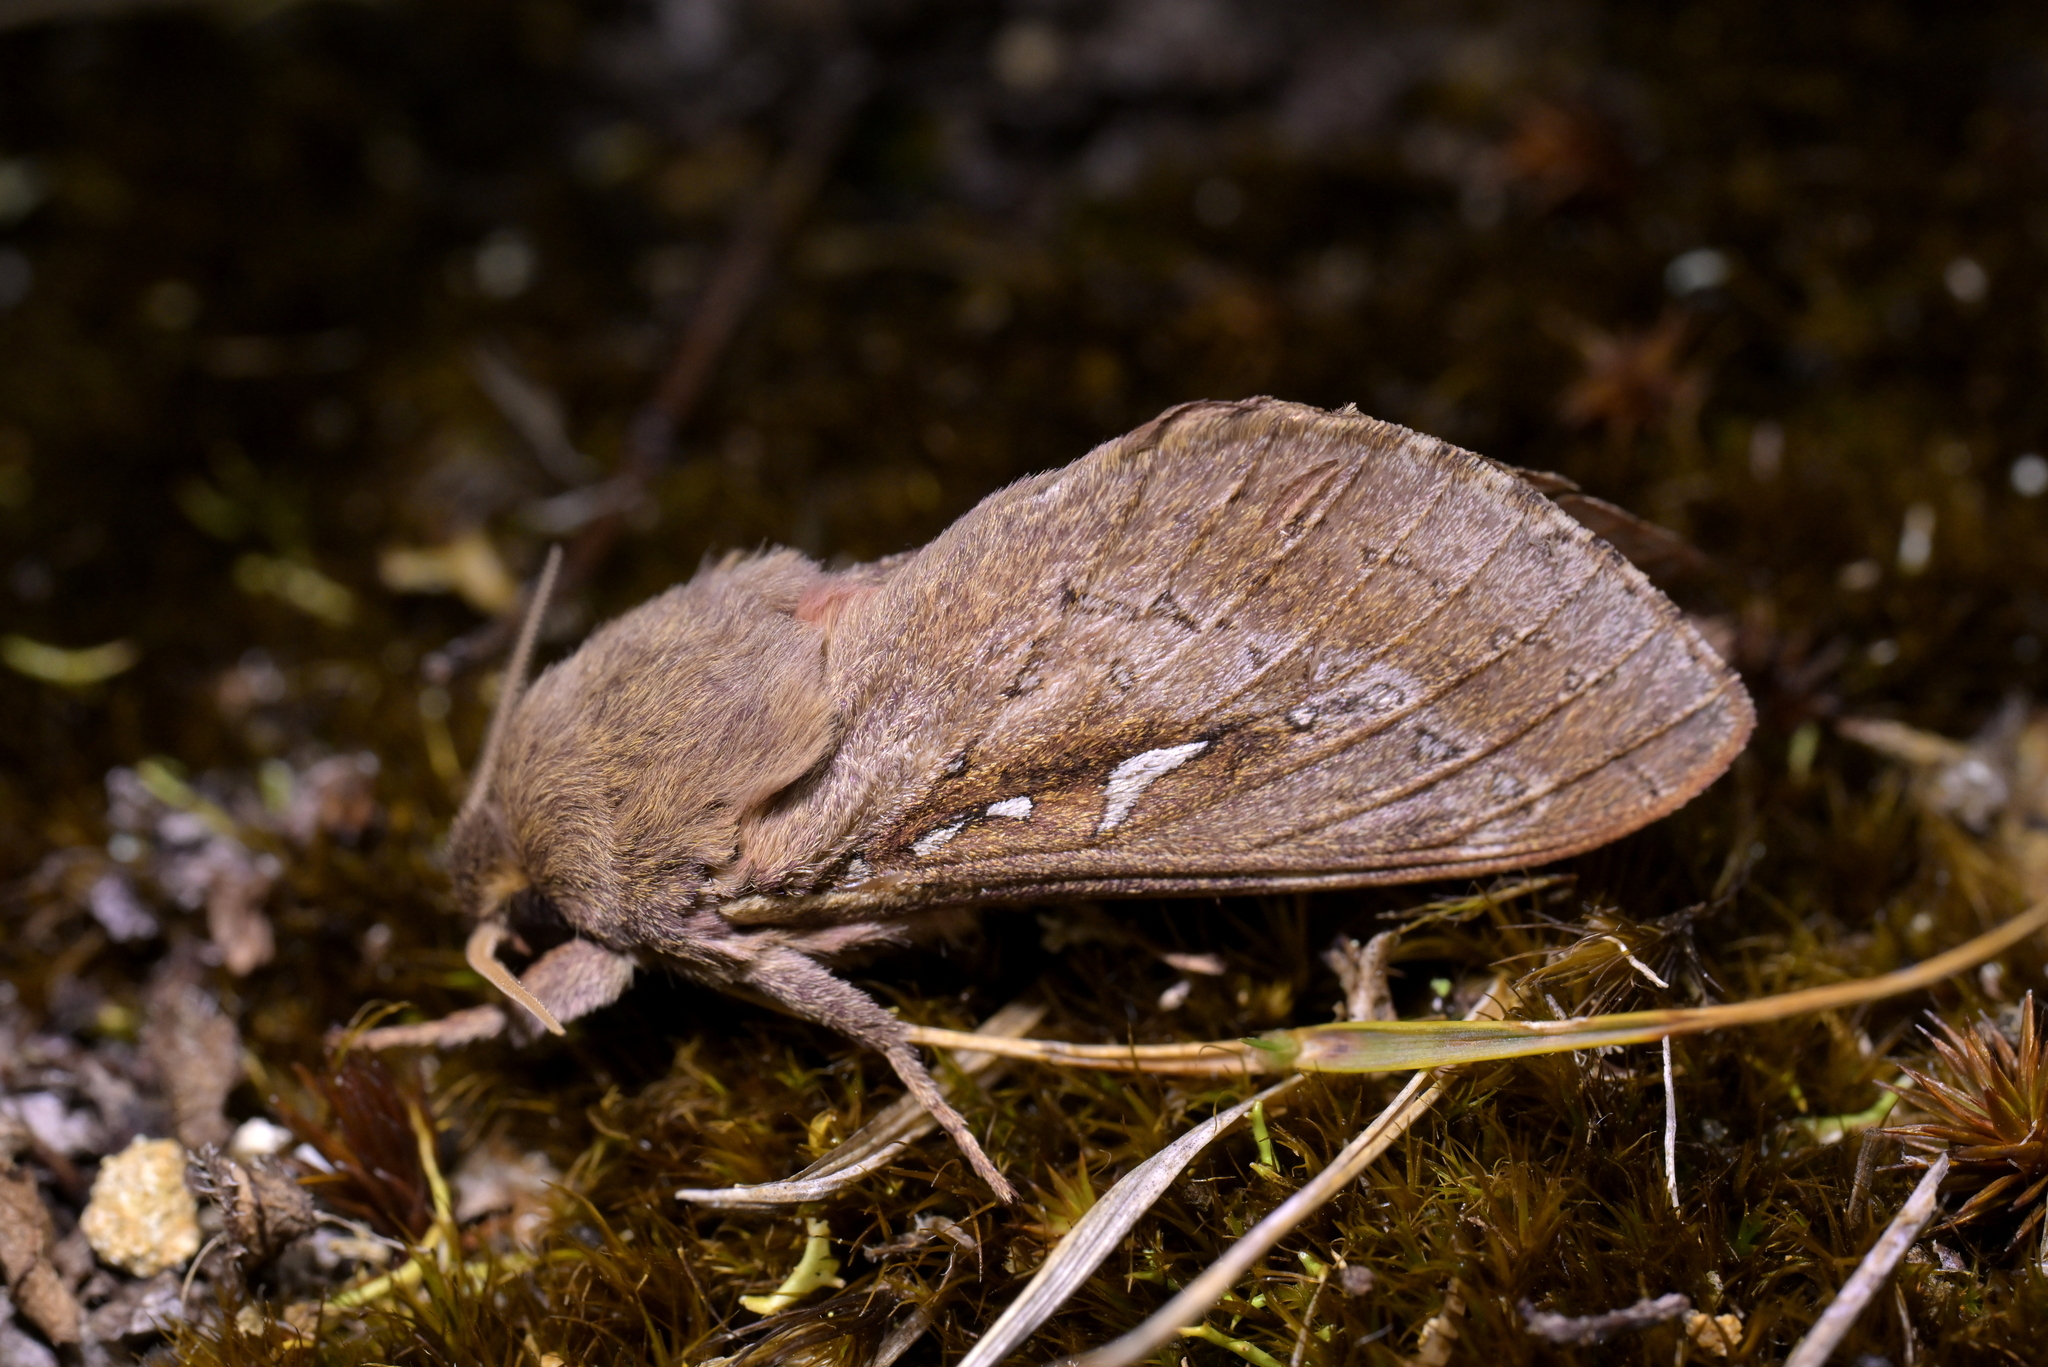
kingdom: Animalia
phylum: Arthropoda
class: Insecta
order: Lepidoptera
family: Hepialidae
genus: Wiseana
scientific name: Wiseana signata
